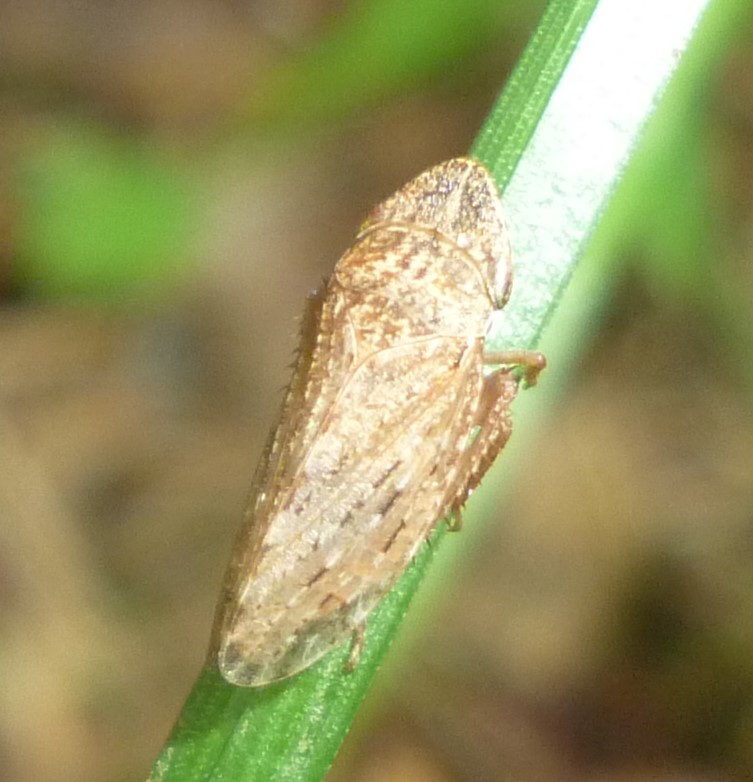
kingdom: Animalia
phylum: Arthropoda
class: Insecta
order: Hemiptera
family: Cicadellidae
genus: Planaphrodes
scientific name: Planaphrodes bifasciata
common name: Planthopper
